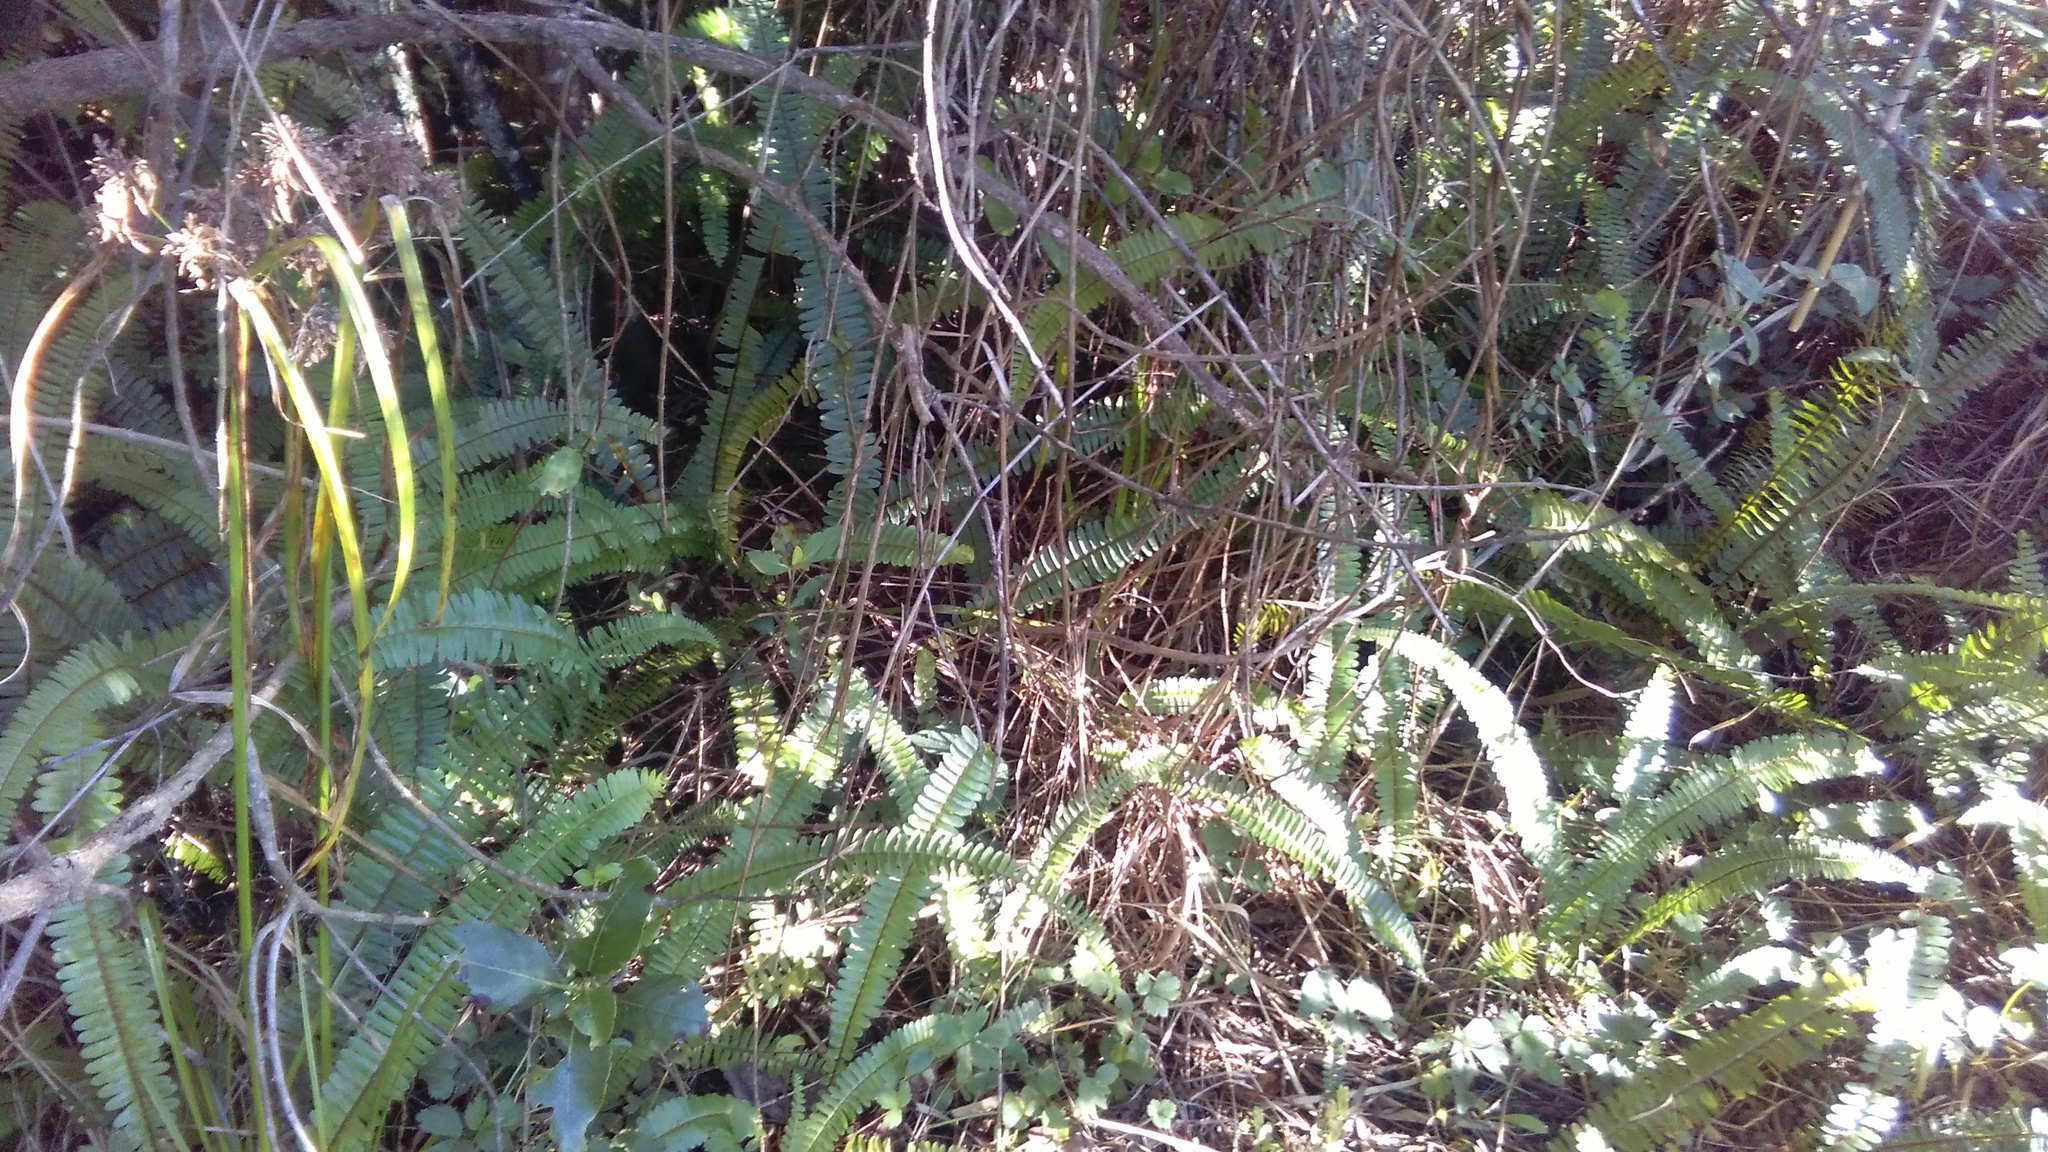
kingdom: Plantae
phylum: Tracheophyta
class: Polypodiopsida
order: Polypodiales
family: Nephrolepidaceae
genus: Nephrolepis
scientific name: Nephrolepis cordifolia
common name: Narrow swordfern
